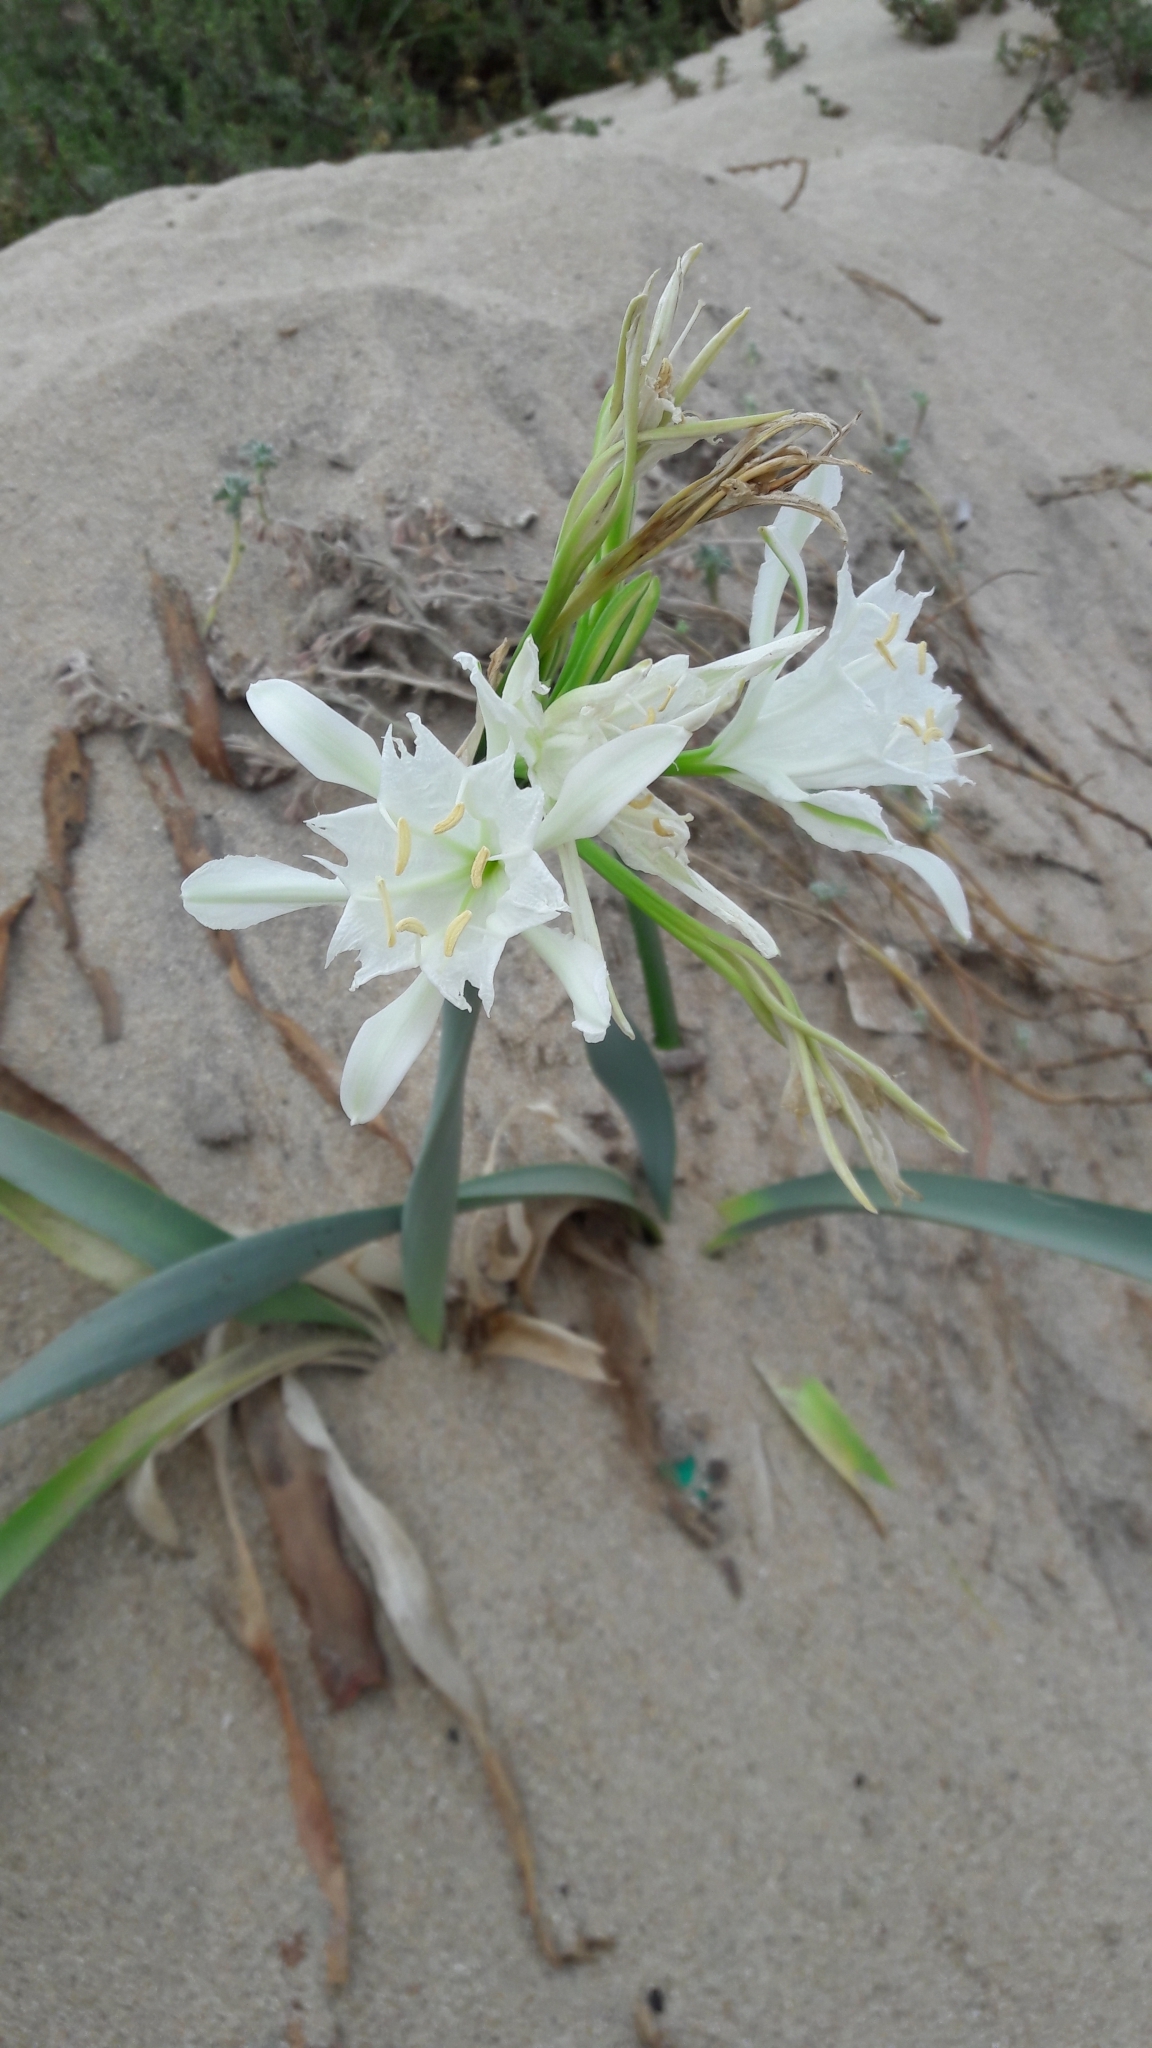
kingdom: Plantae
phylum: Tracheophyta
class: Liliopsida
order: Asparagales
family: Amaryllidaceae
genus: Pancratium
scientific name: Pancratium maritimum
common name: Sea-daffodil
